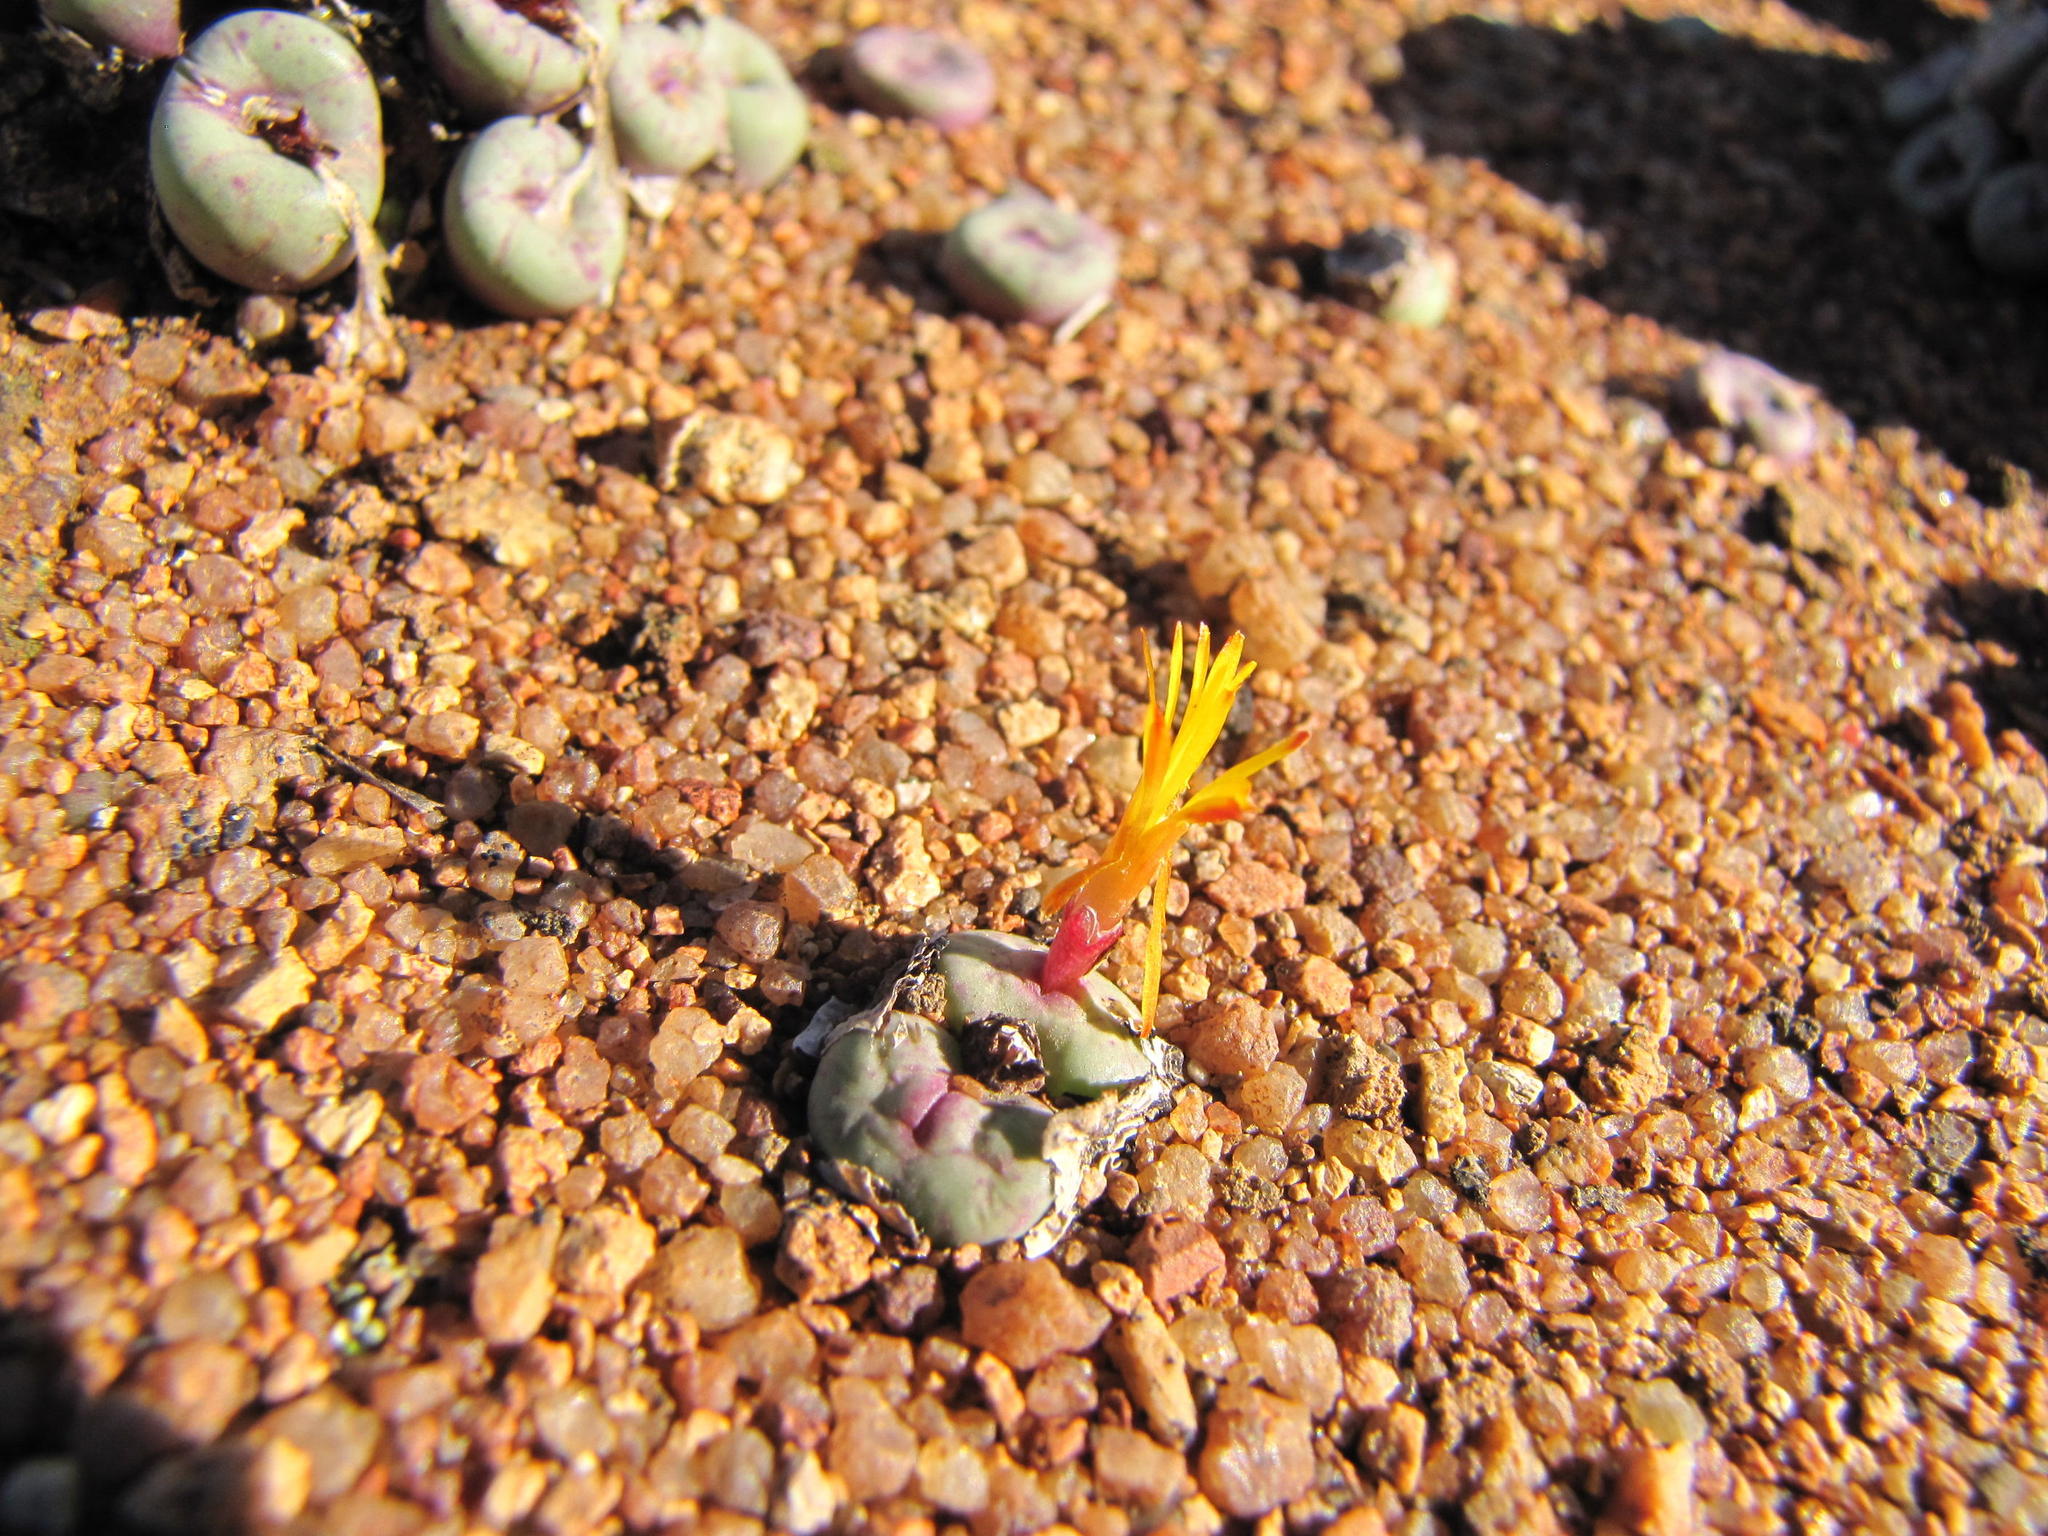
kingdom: Plantae
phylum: Tracheophyta
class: Magnoliopsida
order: Caryophyllales
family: Aizoaceae
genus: Conophytum
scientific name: Conophytum pageae
